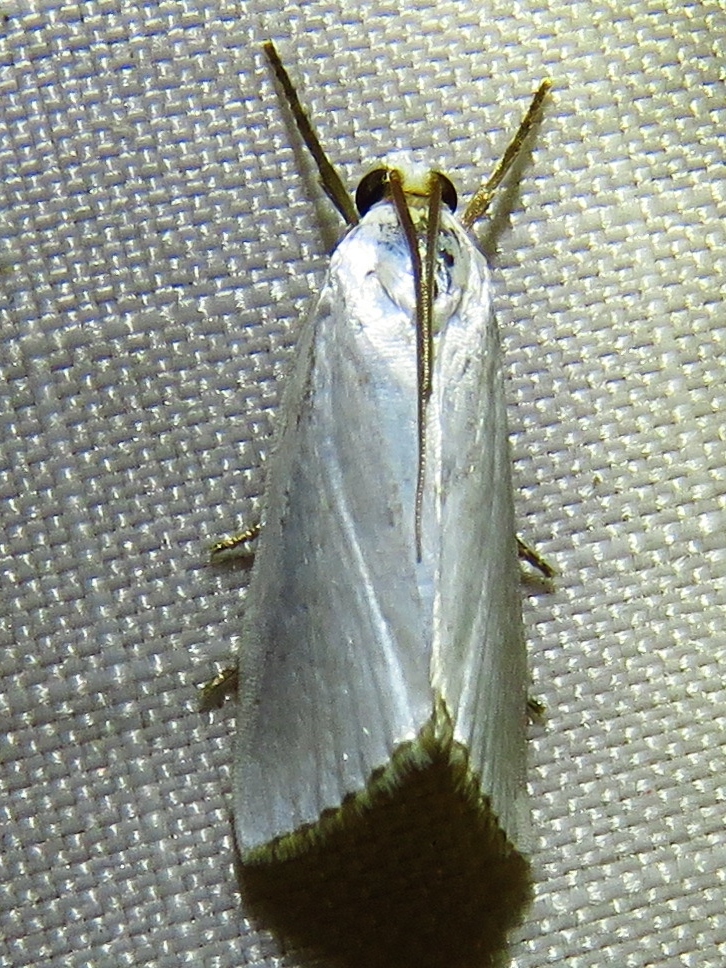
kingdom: Animalia
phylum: Arthropoda
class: Insecta
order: Lepidoptera
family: Crambidae
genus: Argyria
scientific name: Argyria nivalis
